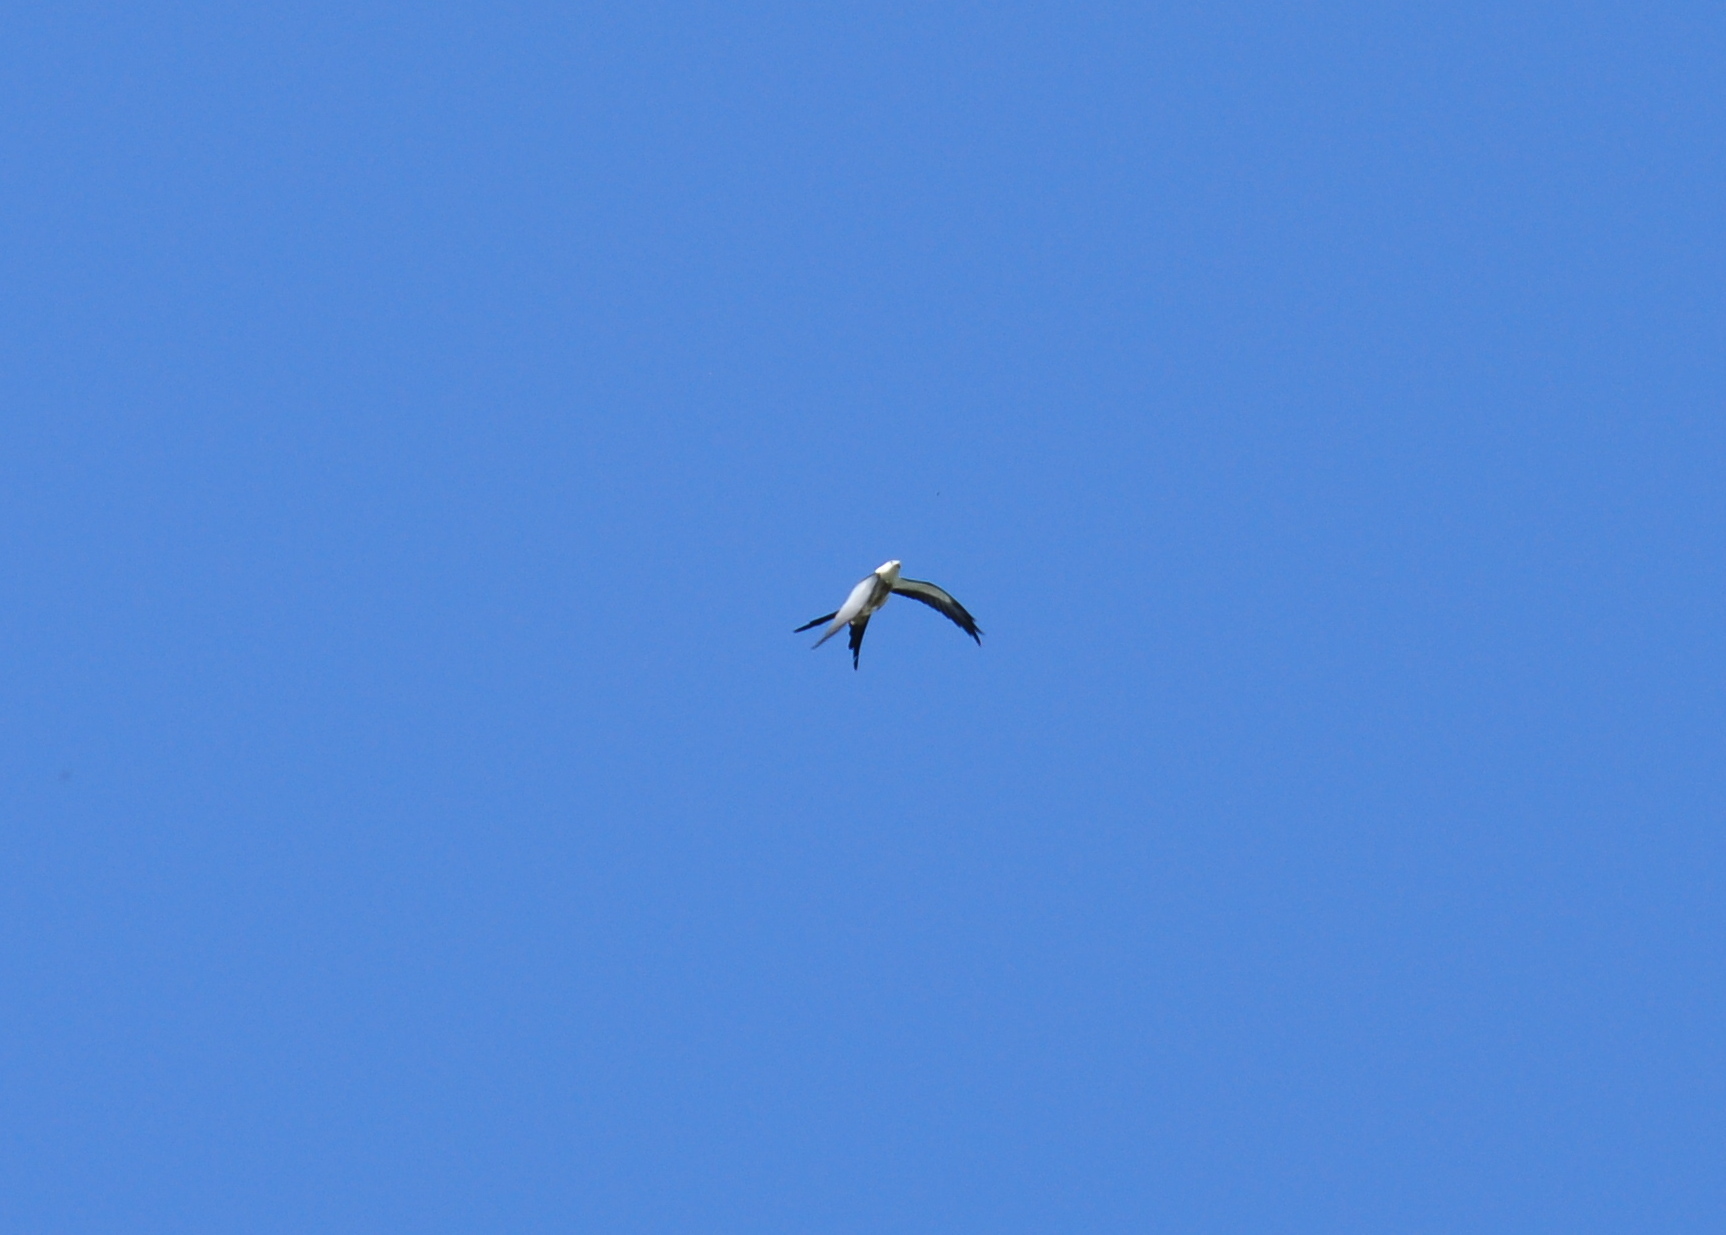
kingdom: Animalia
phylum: Chordata
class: Aves
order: Accipitriformes
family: Accipitridae
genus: Elanoides
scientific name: Elanoides forficatus
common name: Swallow-tailed kite
